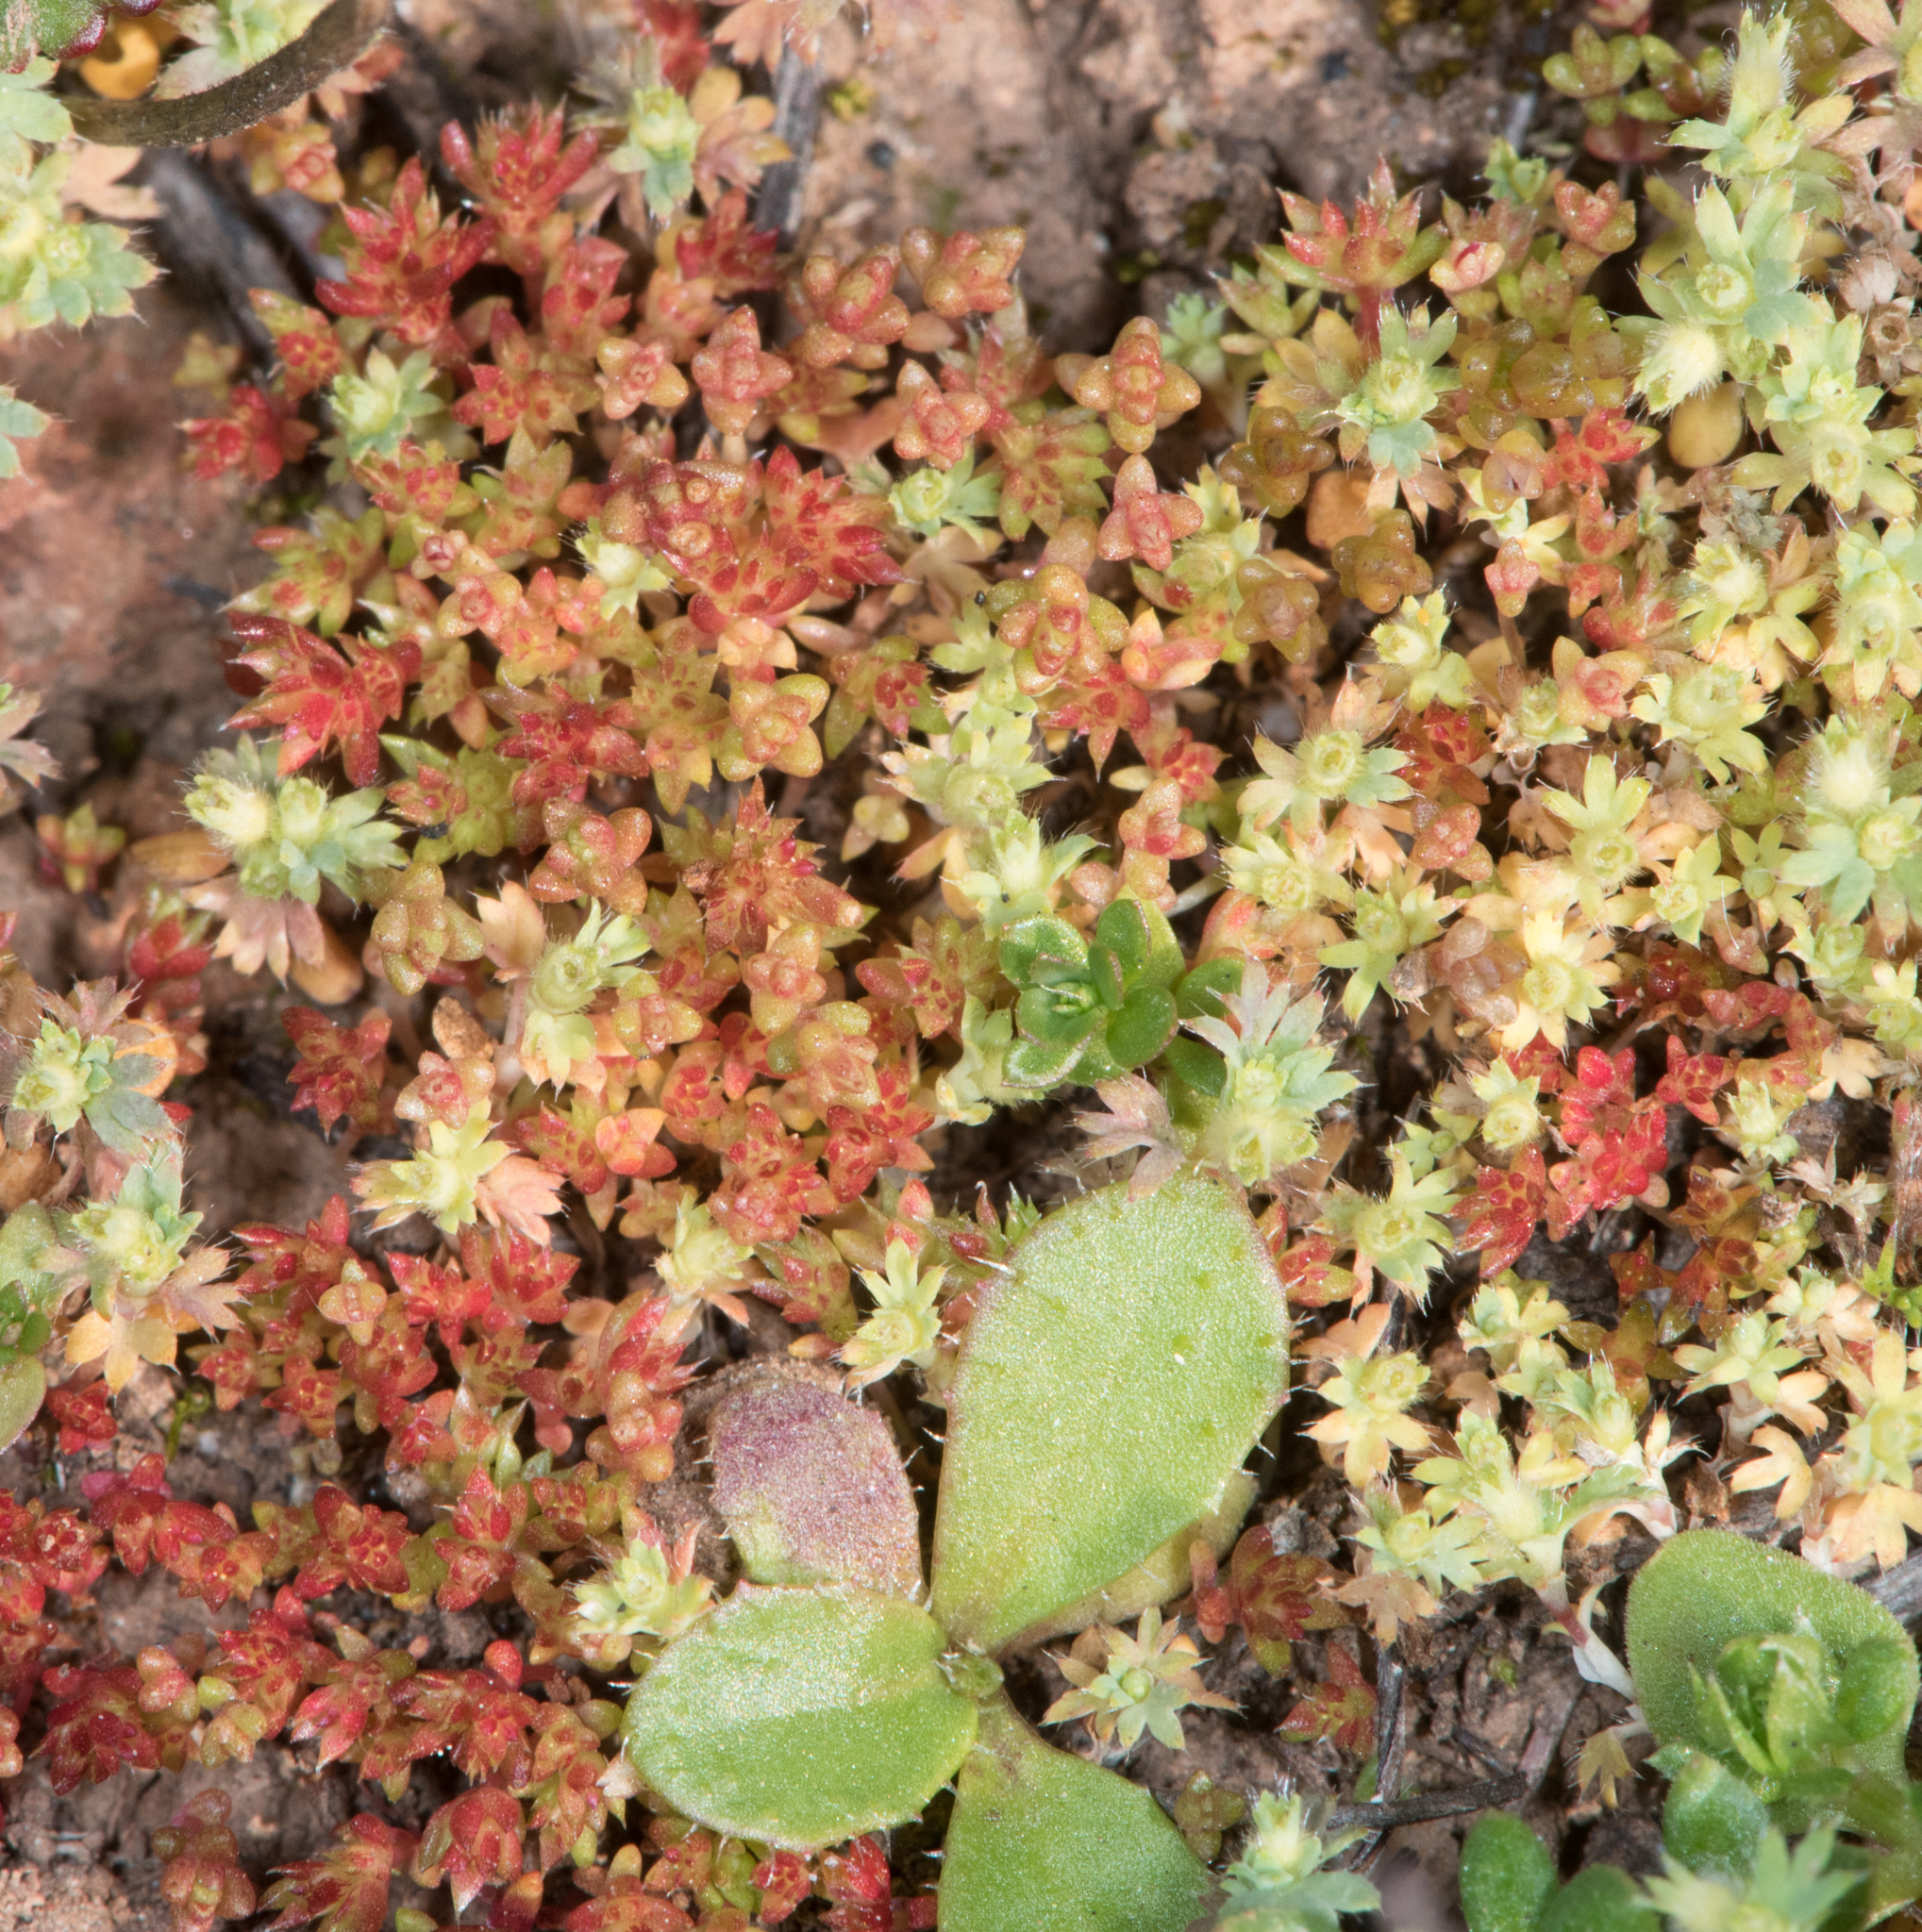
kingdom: Plantae
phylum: Tracheophyta
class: Magnoliopsida
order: Saxifragales
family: Crassulaceae
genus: Crassula
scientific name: Crassula connata
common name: Erect pygmyweed
